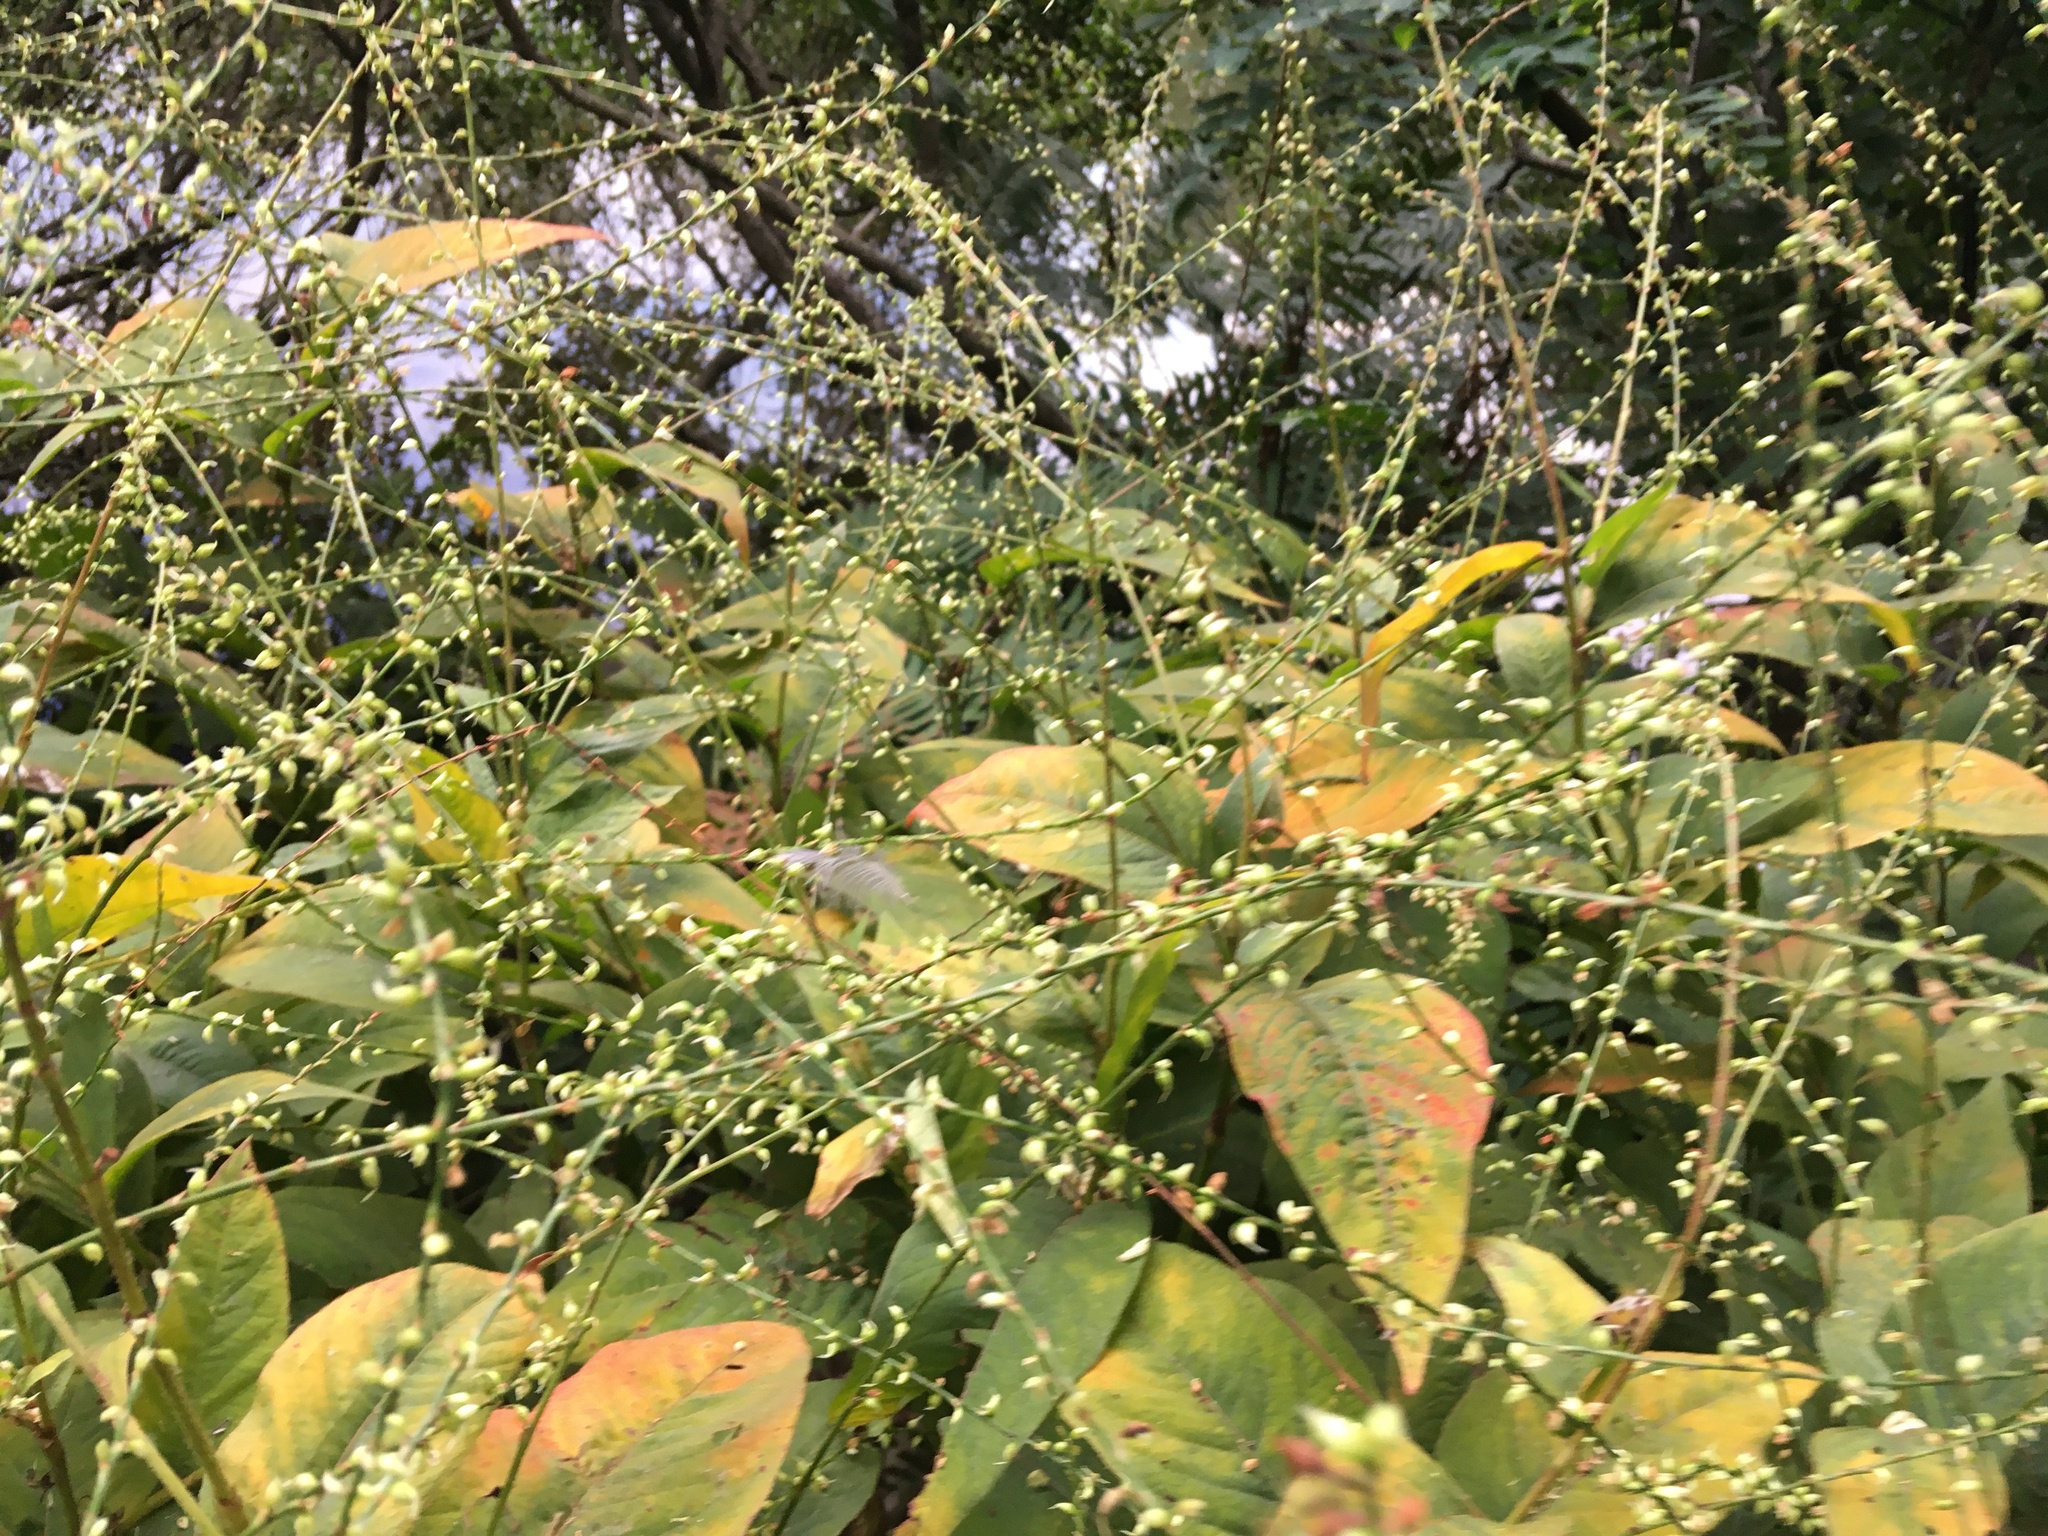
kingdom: Plantae
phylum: Tracheophyta
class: Magnoliopsida
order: Caryophyllales
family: Polygonaceae
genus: Persicaria
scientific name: Persicaria virginiana
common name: Jumpseed
